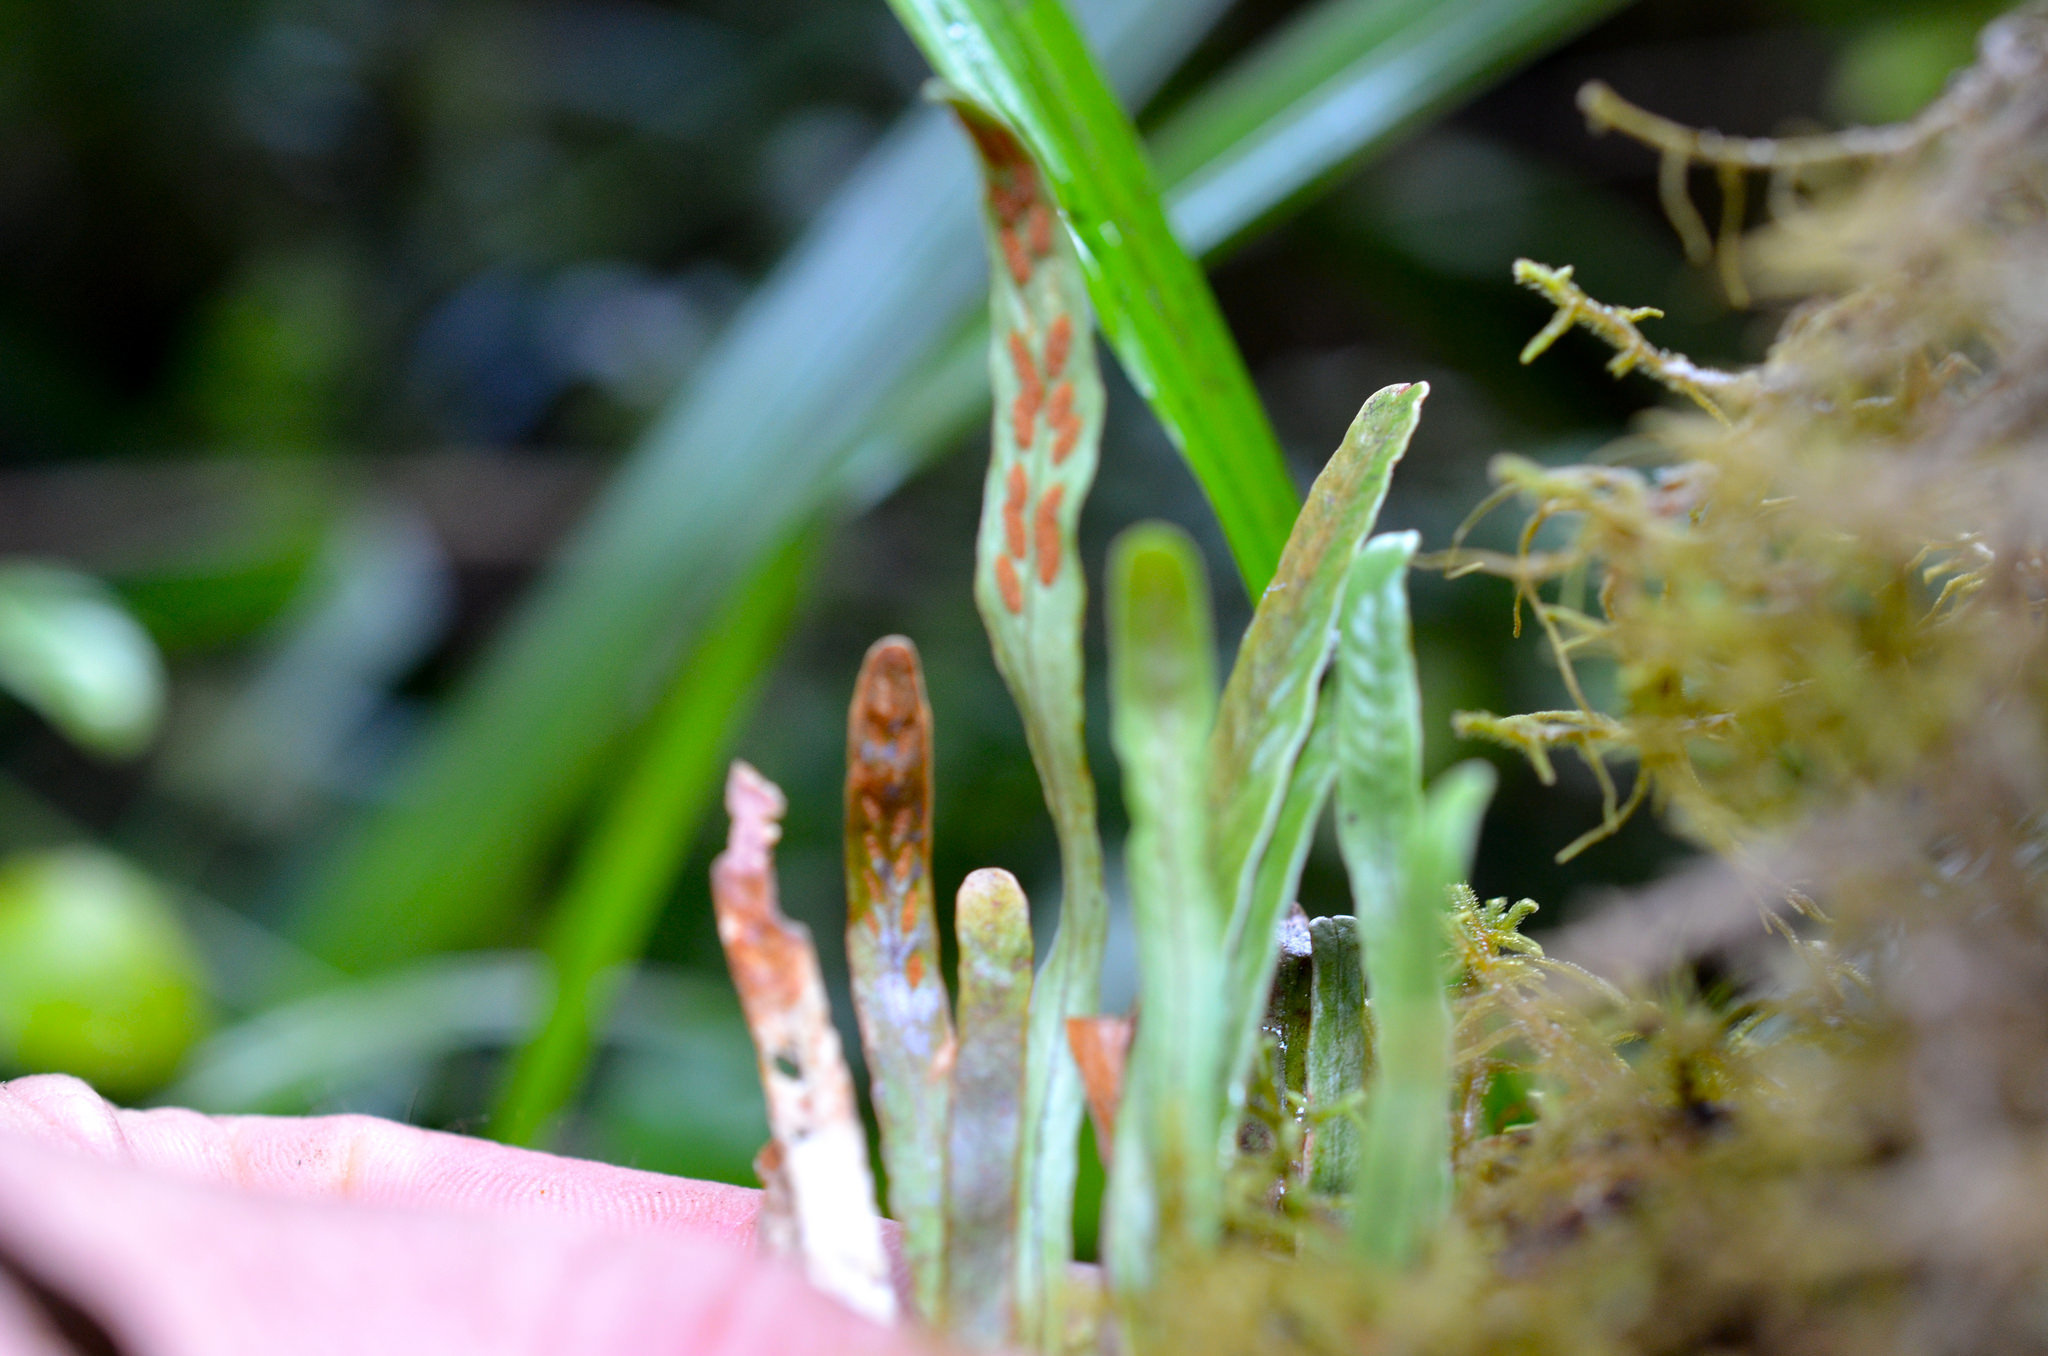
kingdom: Plantae
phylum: Tracheophyta
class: Polypodiopsida
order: Polypodiales
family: Polypodiaceae
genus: Notogrammitis
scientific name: Notogrammitis billardierei
